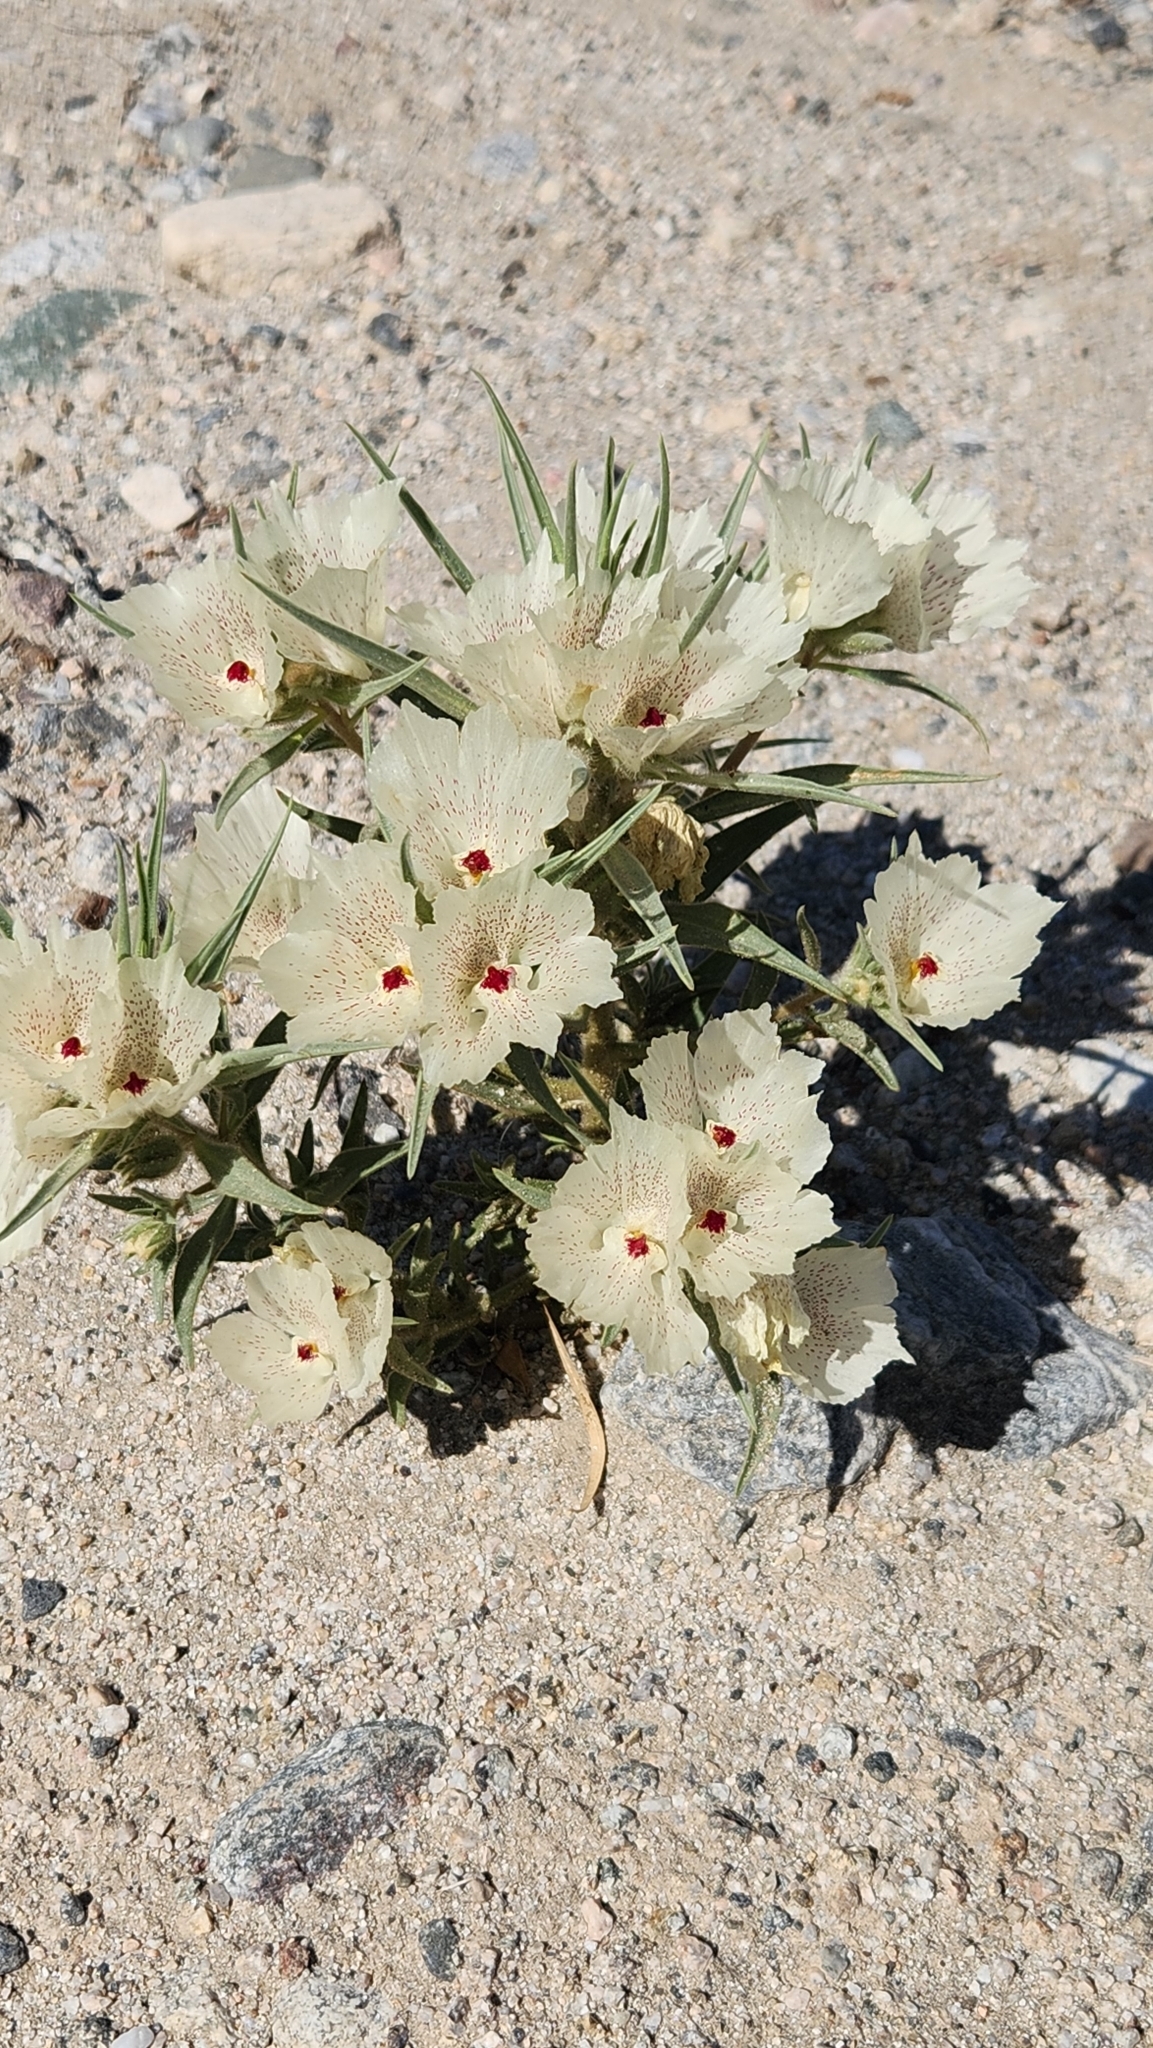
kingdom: Plantae
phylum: Tracheophyta
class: Magnoliopsida
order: Lamiales
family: Plantaginaceae
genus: Mohavea
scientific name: Mohavea confertiflora
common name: Ghost flower
